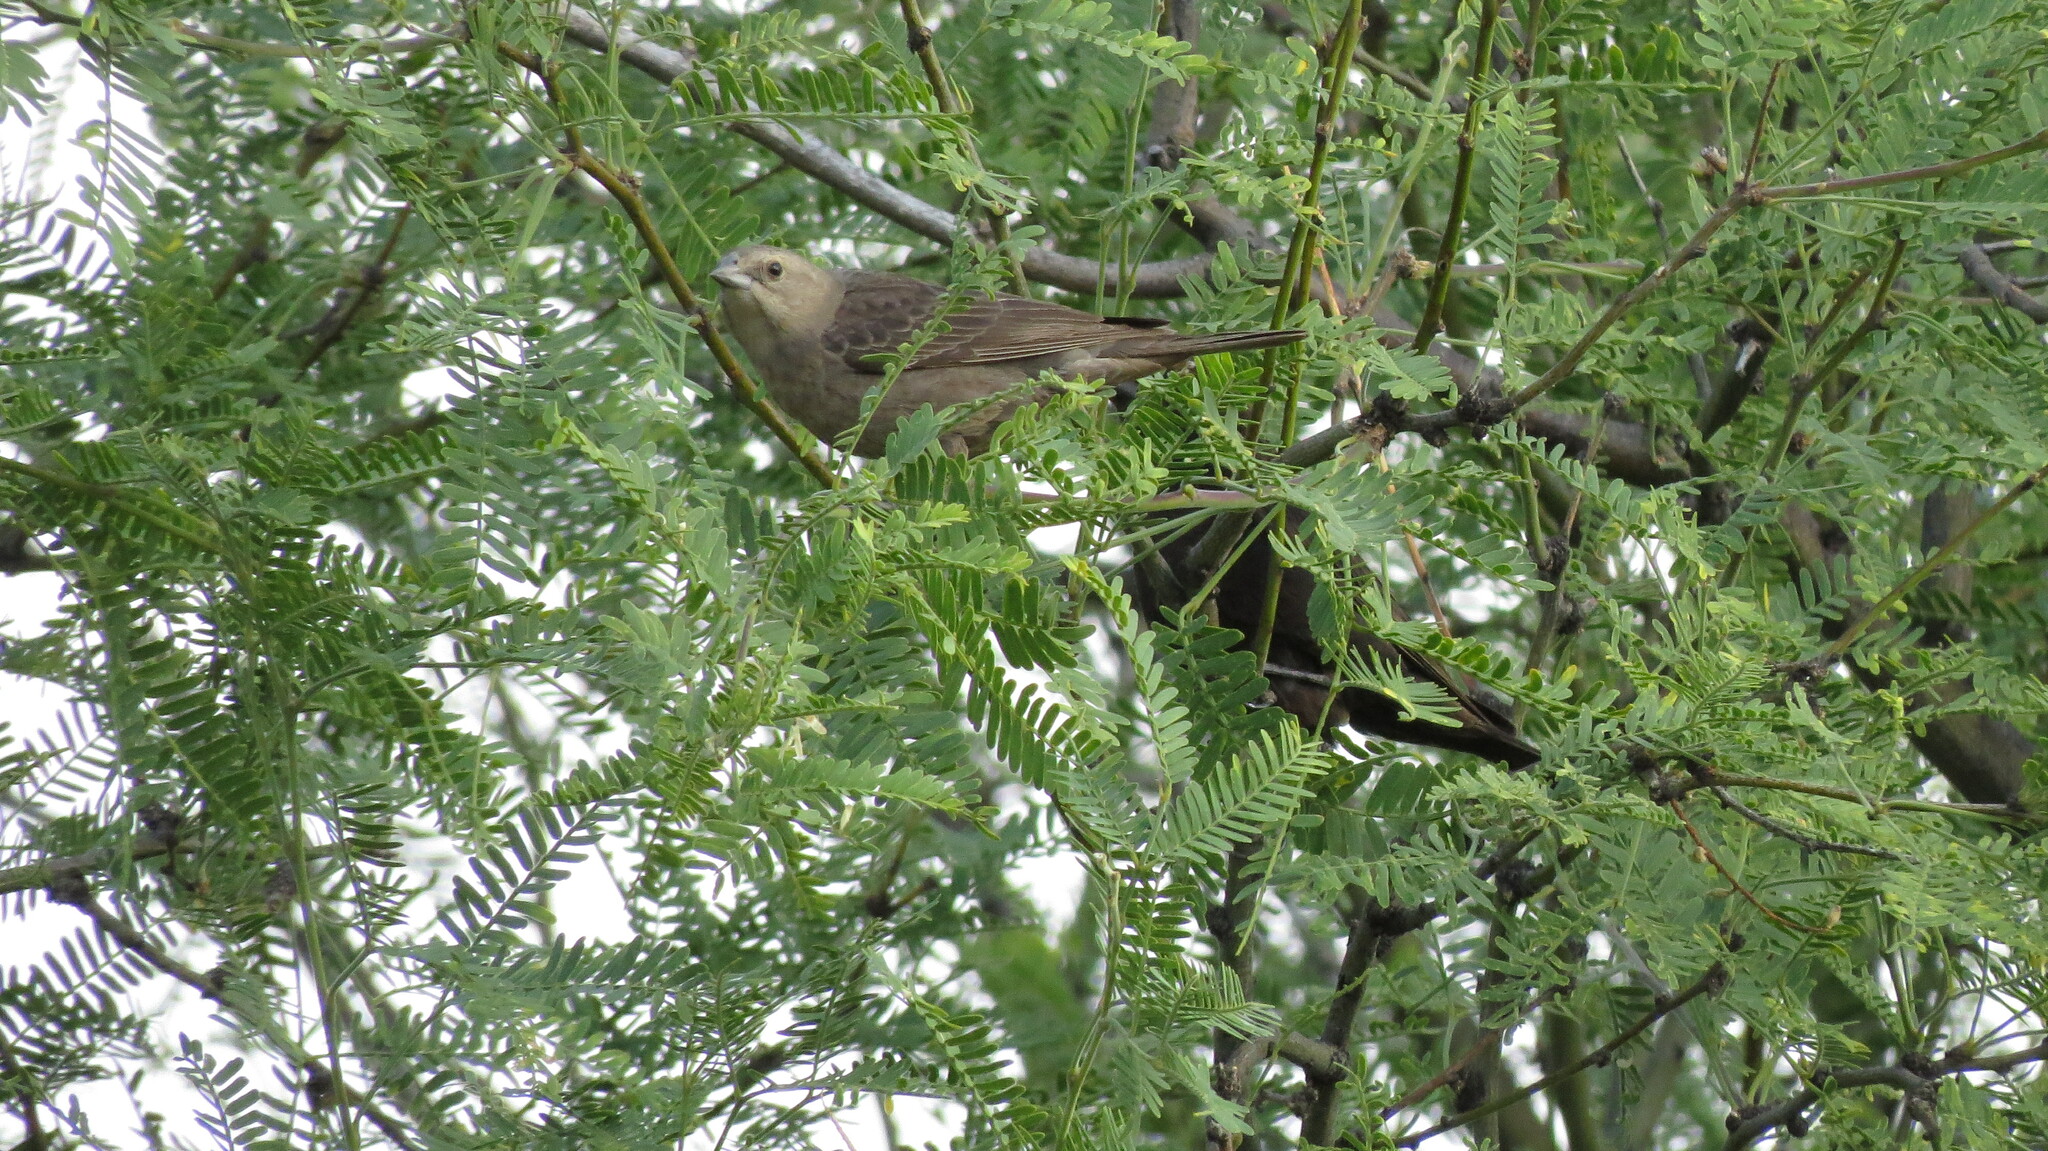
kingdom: Animalia
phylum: Chordata
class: Aves
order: Passeriformes
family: Icteridae
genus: Molothrus
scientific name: Molothrus ater
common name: Brown-headed cowbird
